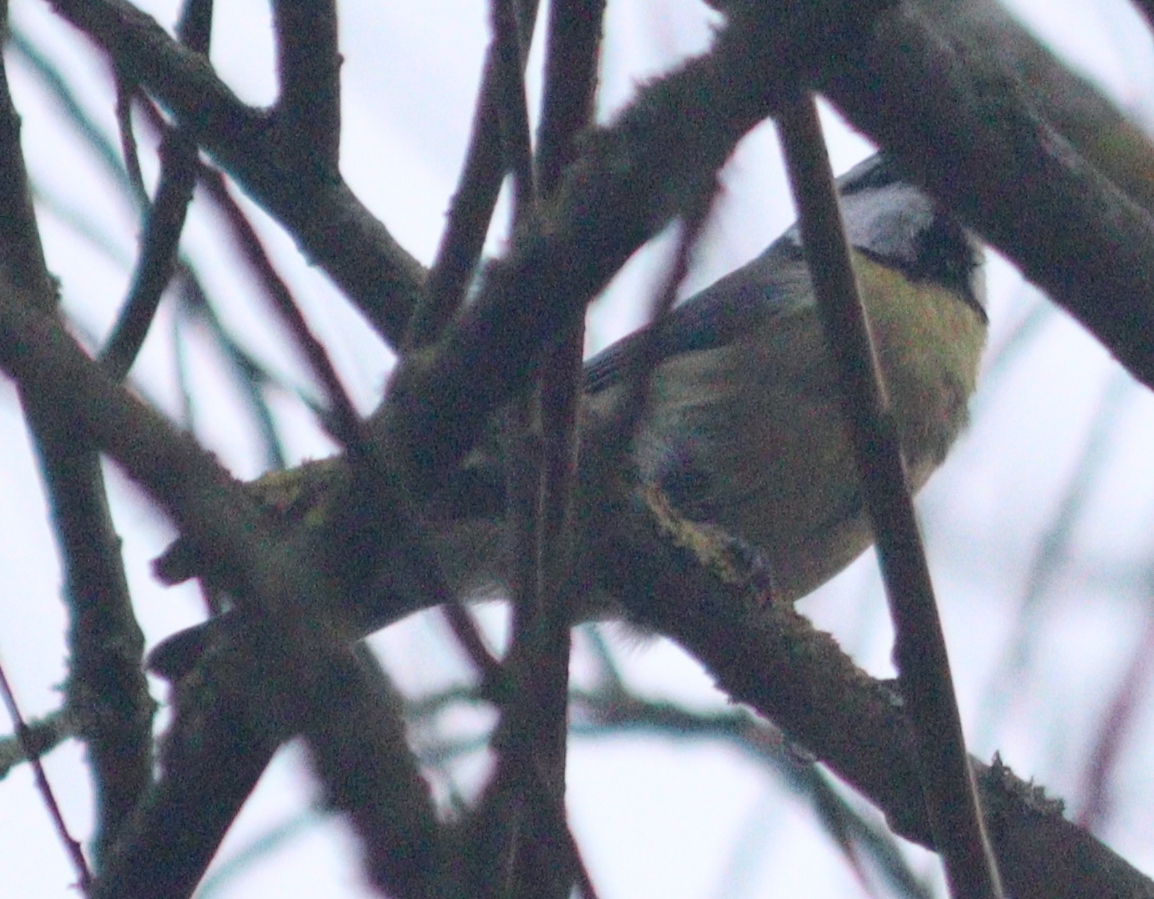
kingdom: Animalia
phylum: Chordata
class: Aves
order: Passeriformes
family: Paridae
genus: Cyanistes
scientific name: Cyanistes caeruleus
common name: Eurasian blue tit
